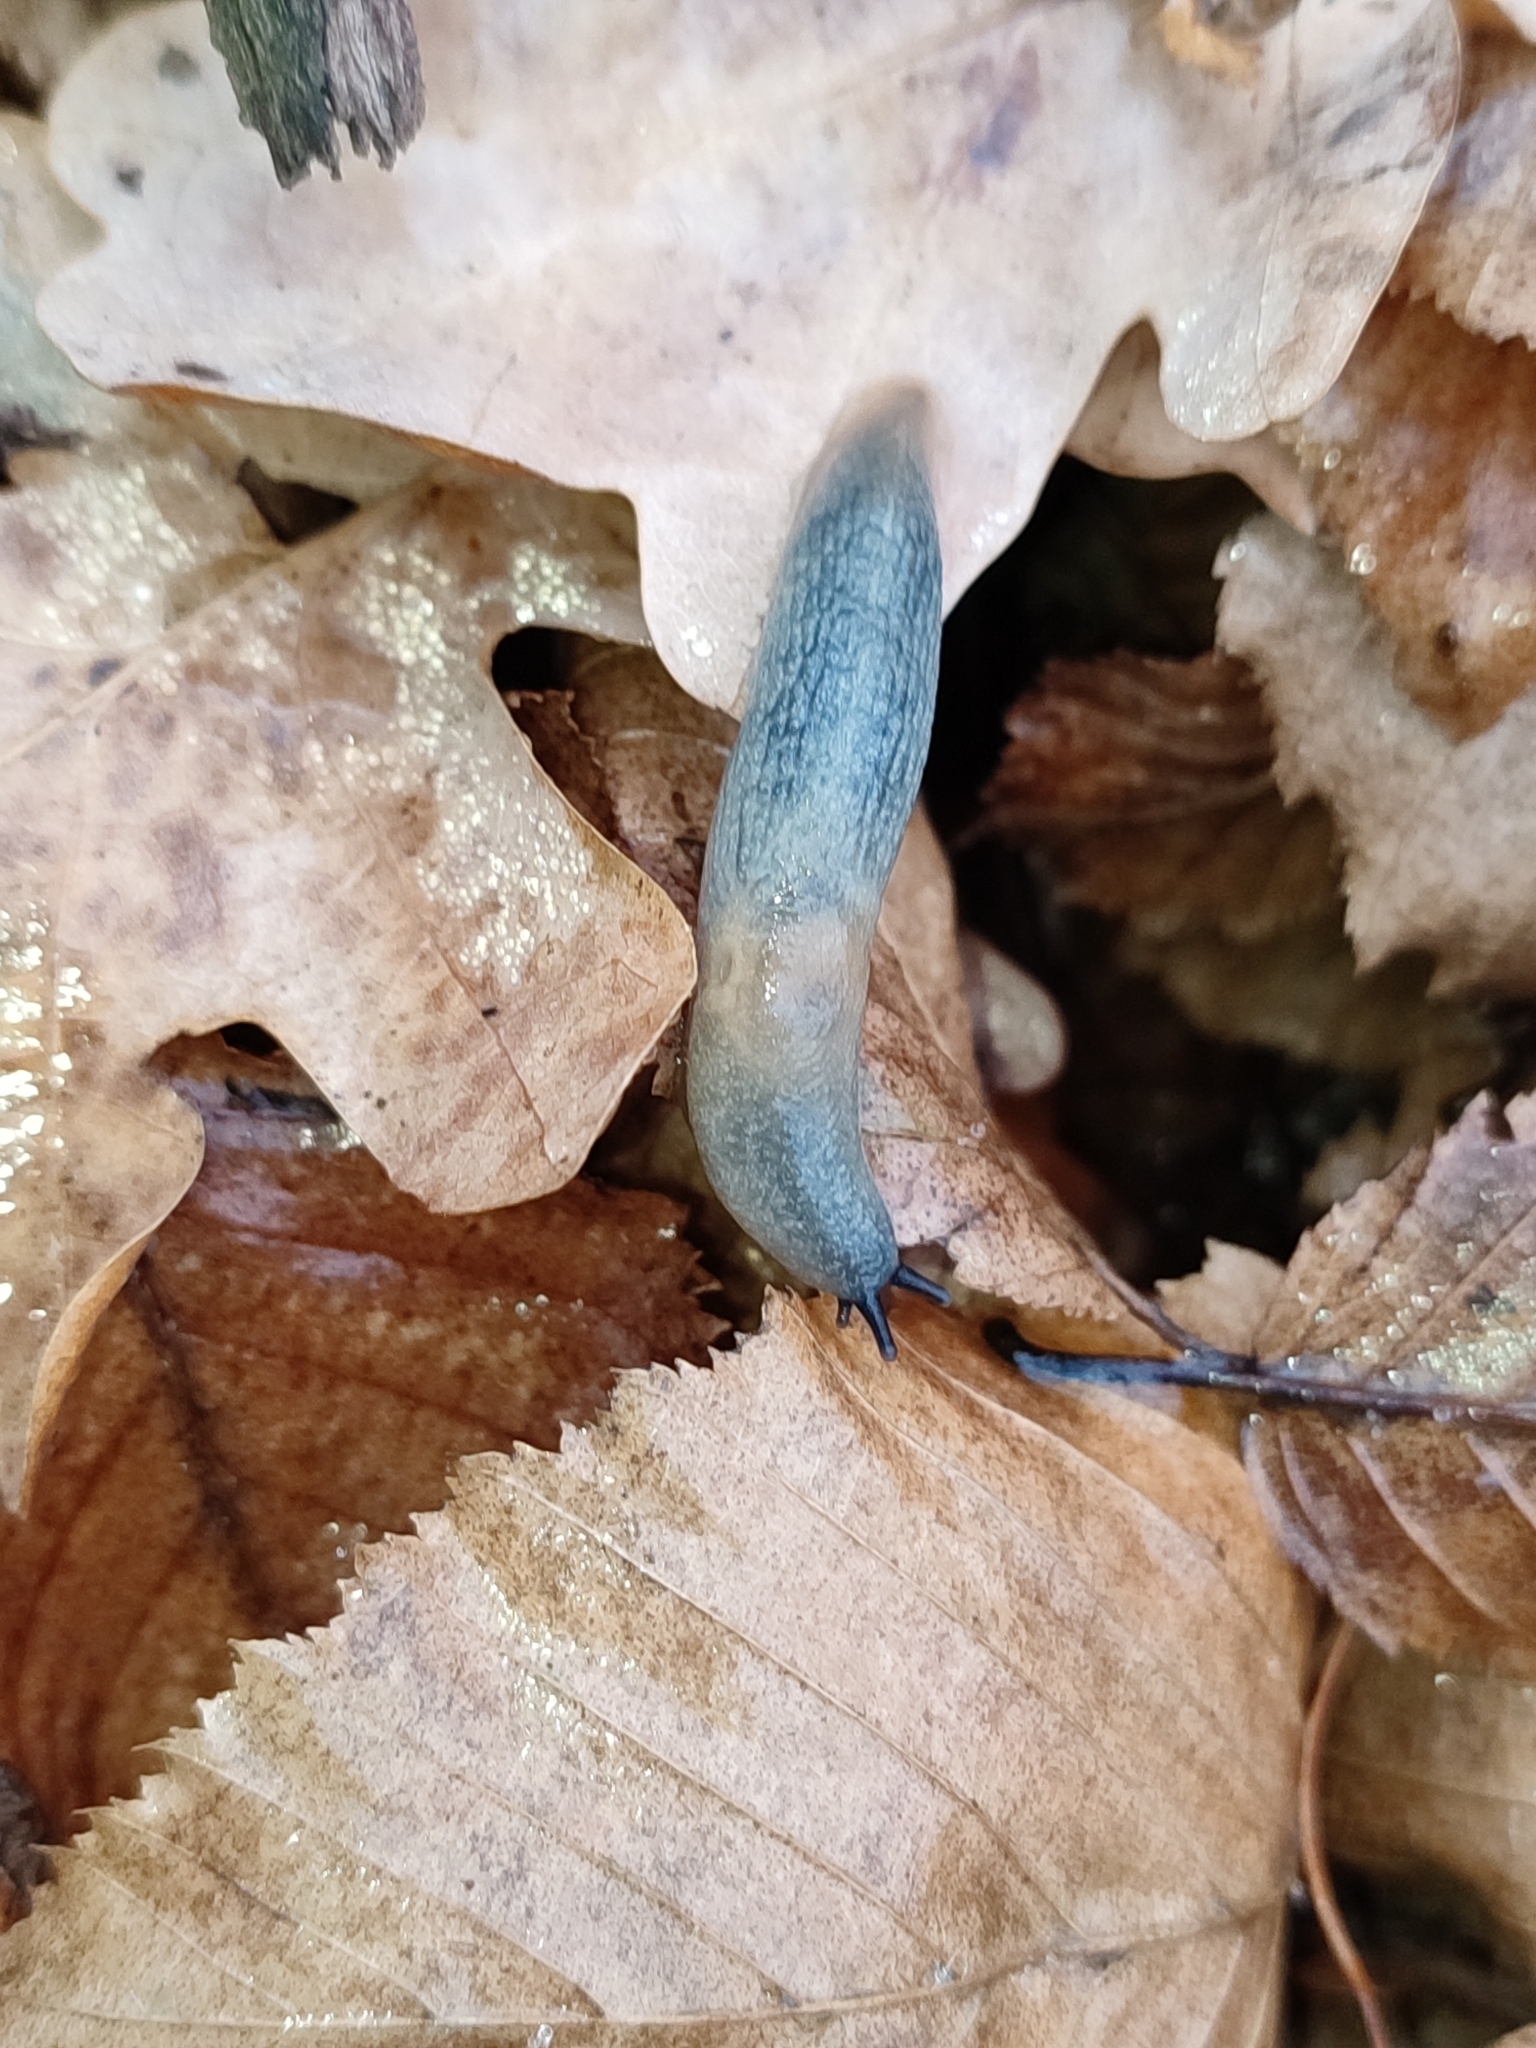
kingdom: Animalia
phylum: Mollusca
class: Gastropoda
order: Stylommatophora
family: Agriolimacidae
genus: Krynickillus
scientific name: Krynickillus melanocephalus
